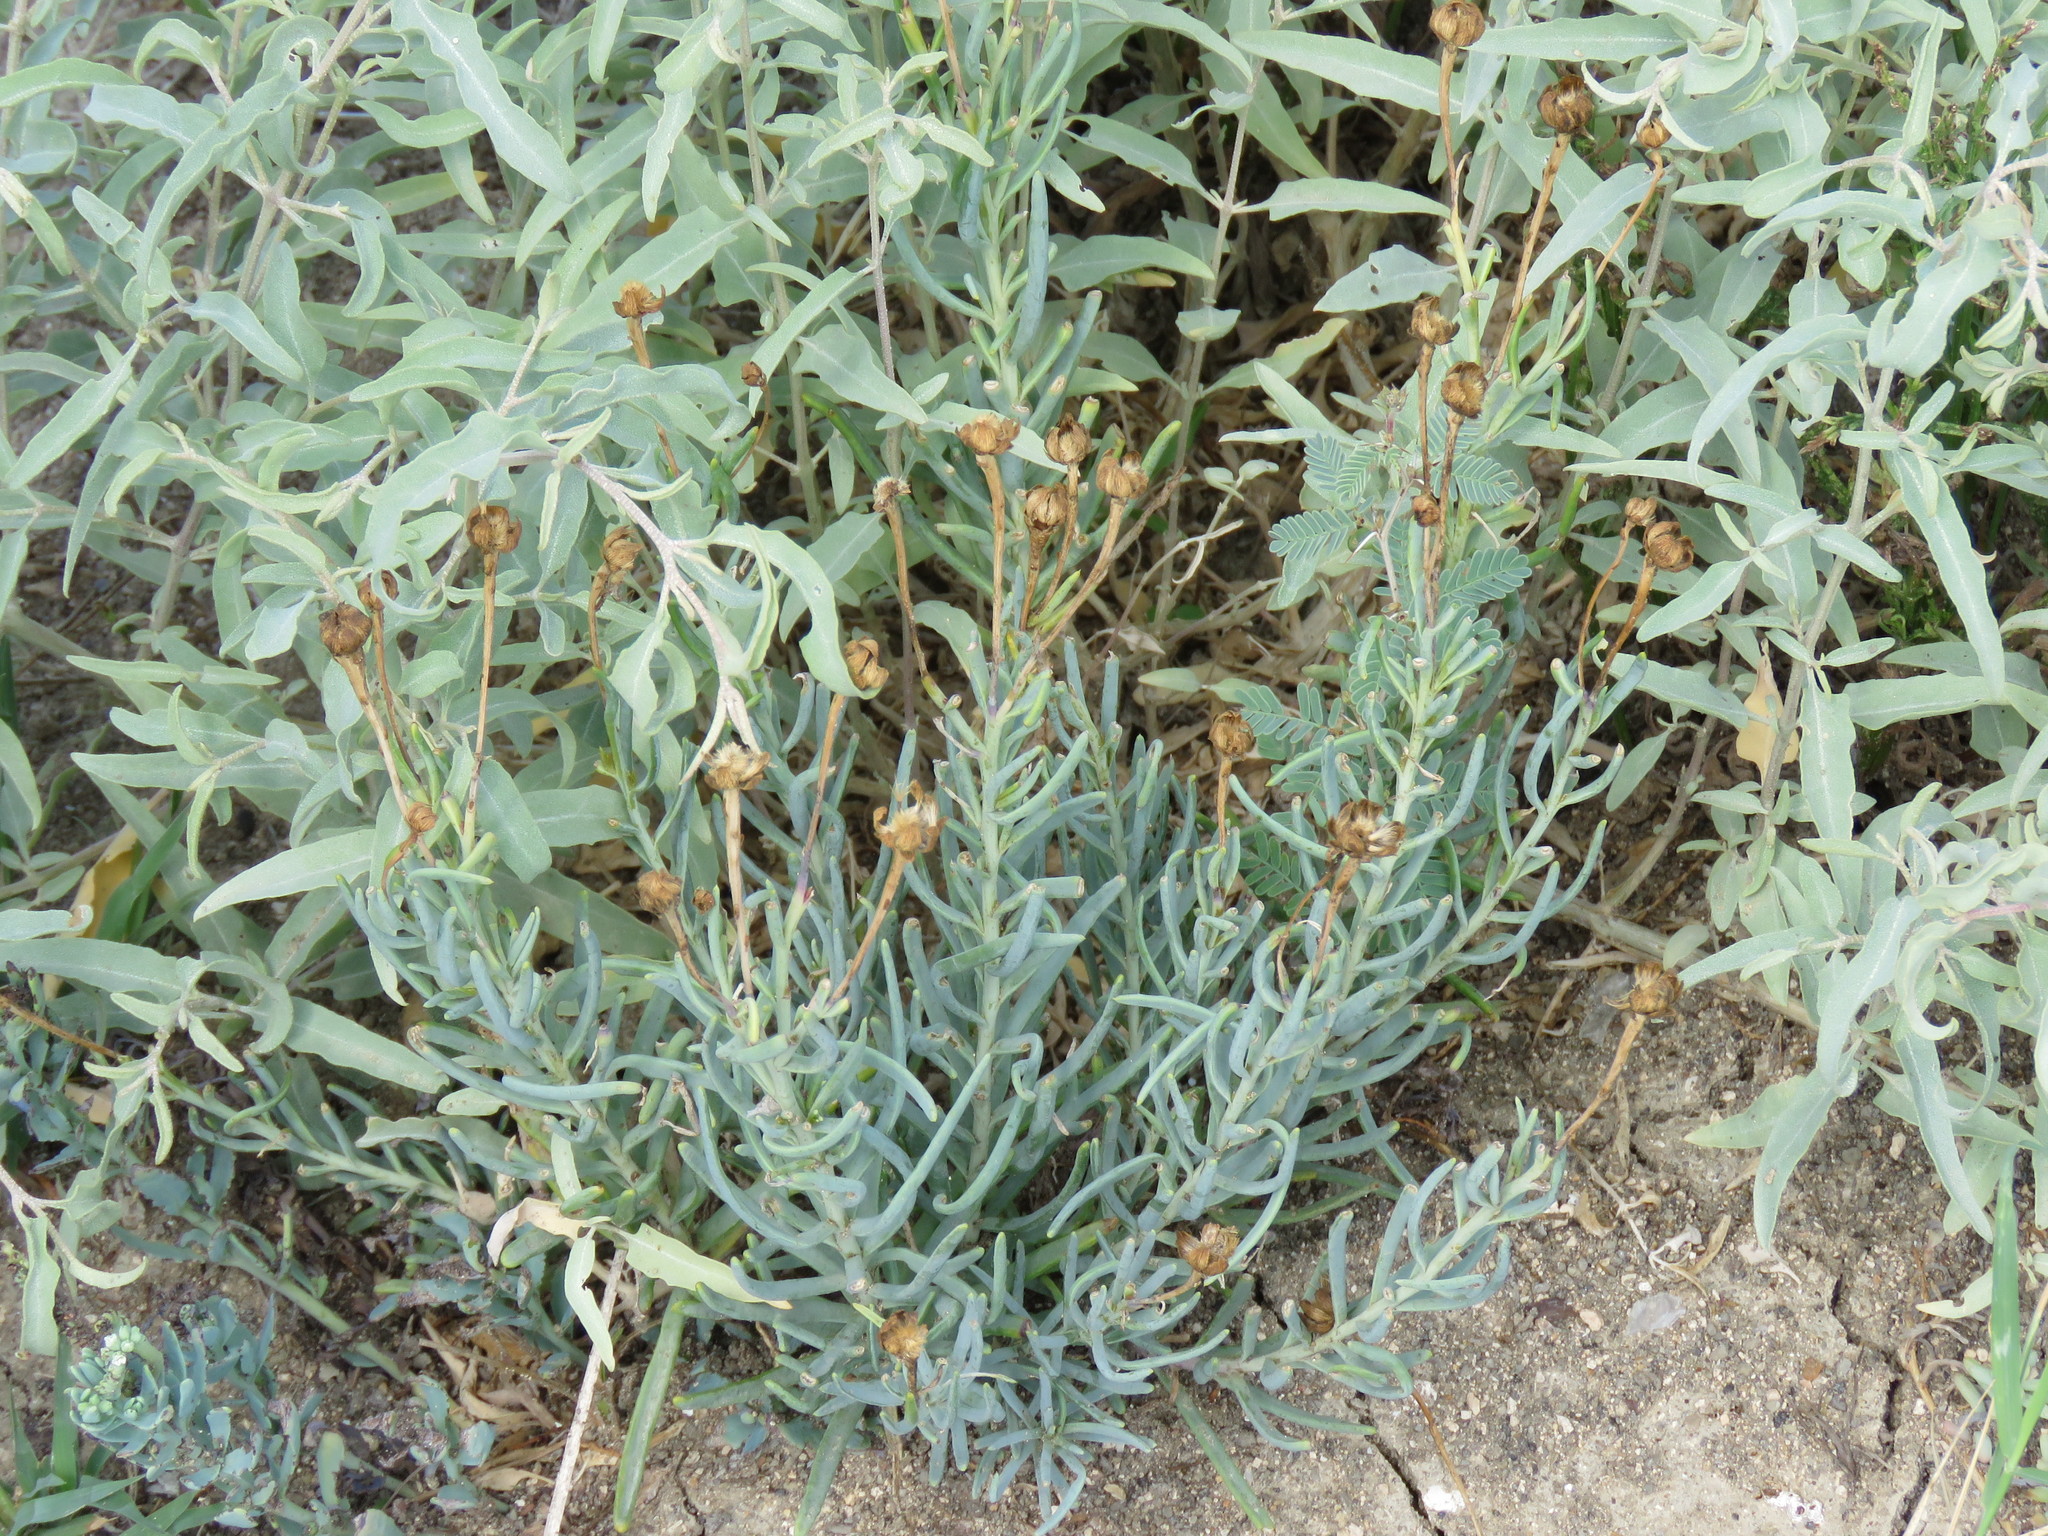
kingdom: Plantae
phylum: Tracheophyta
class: Magnoliopsida
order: Asterales
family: Asteraceae
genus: Clappia
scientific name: Clappia suaedifolia
